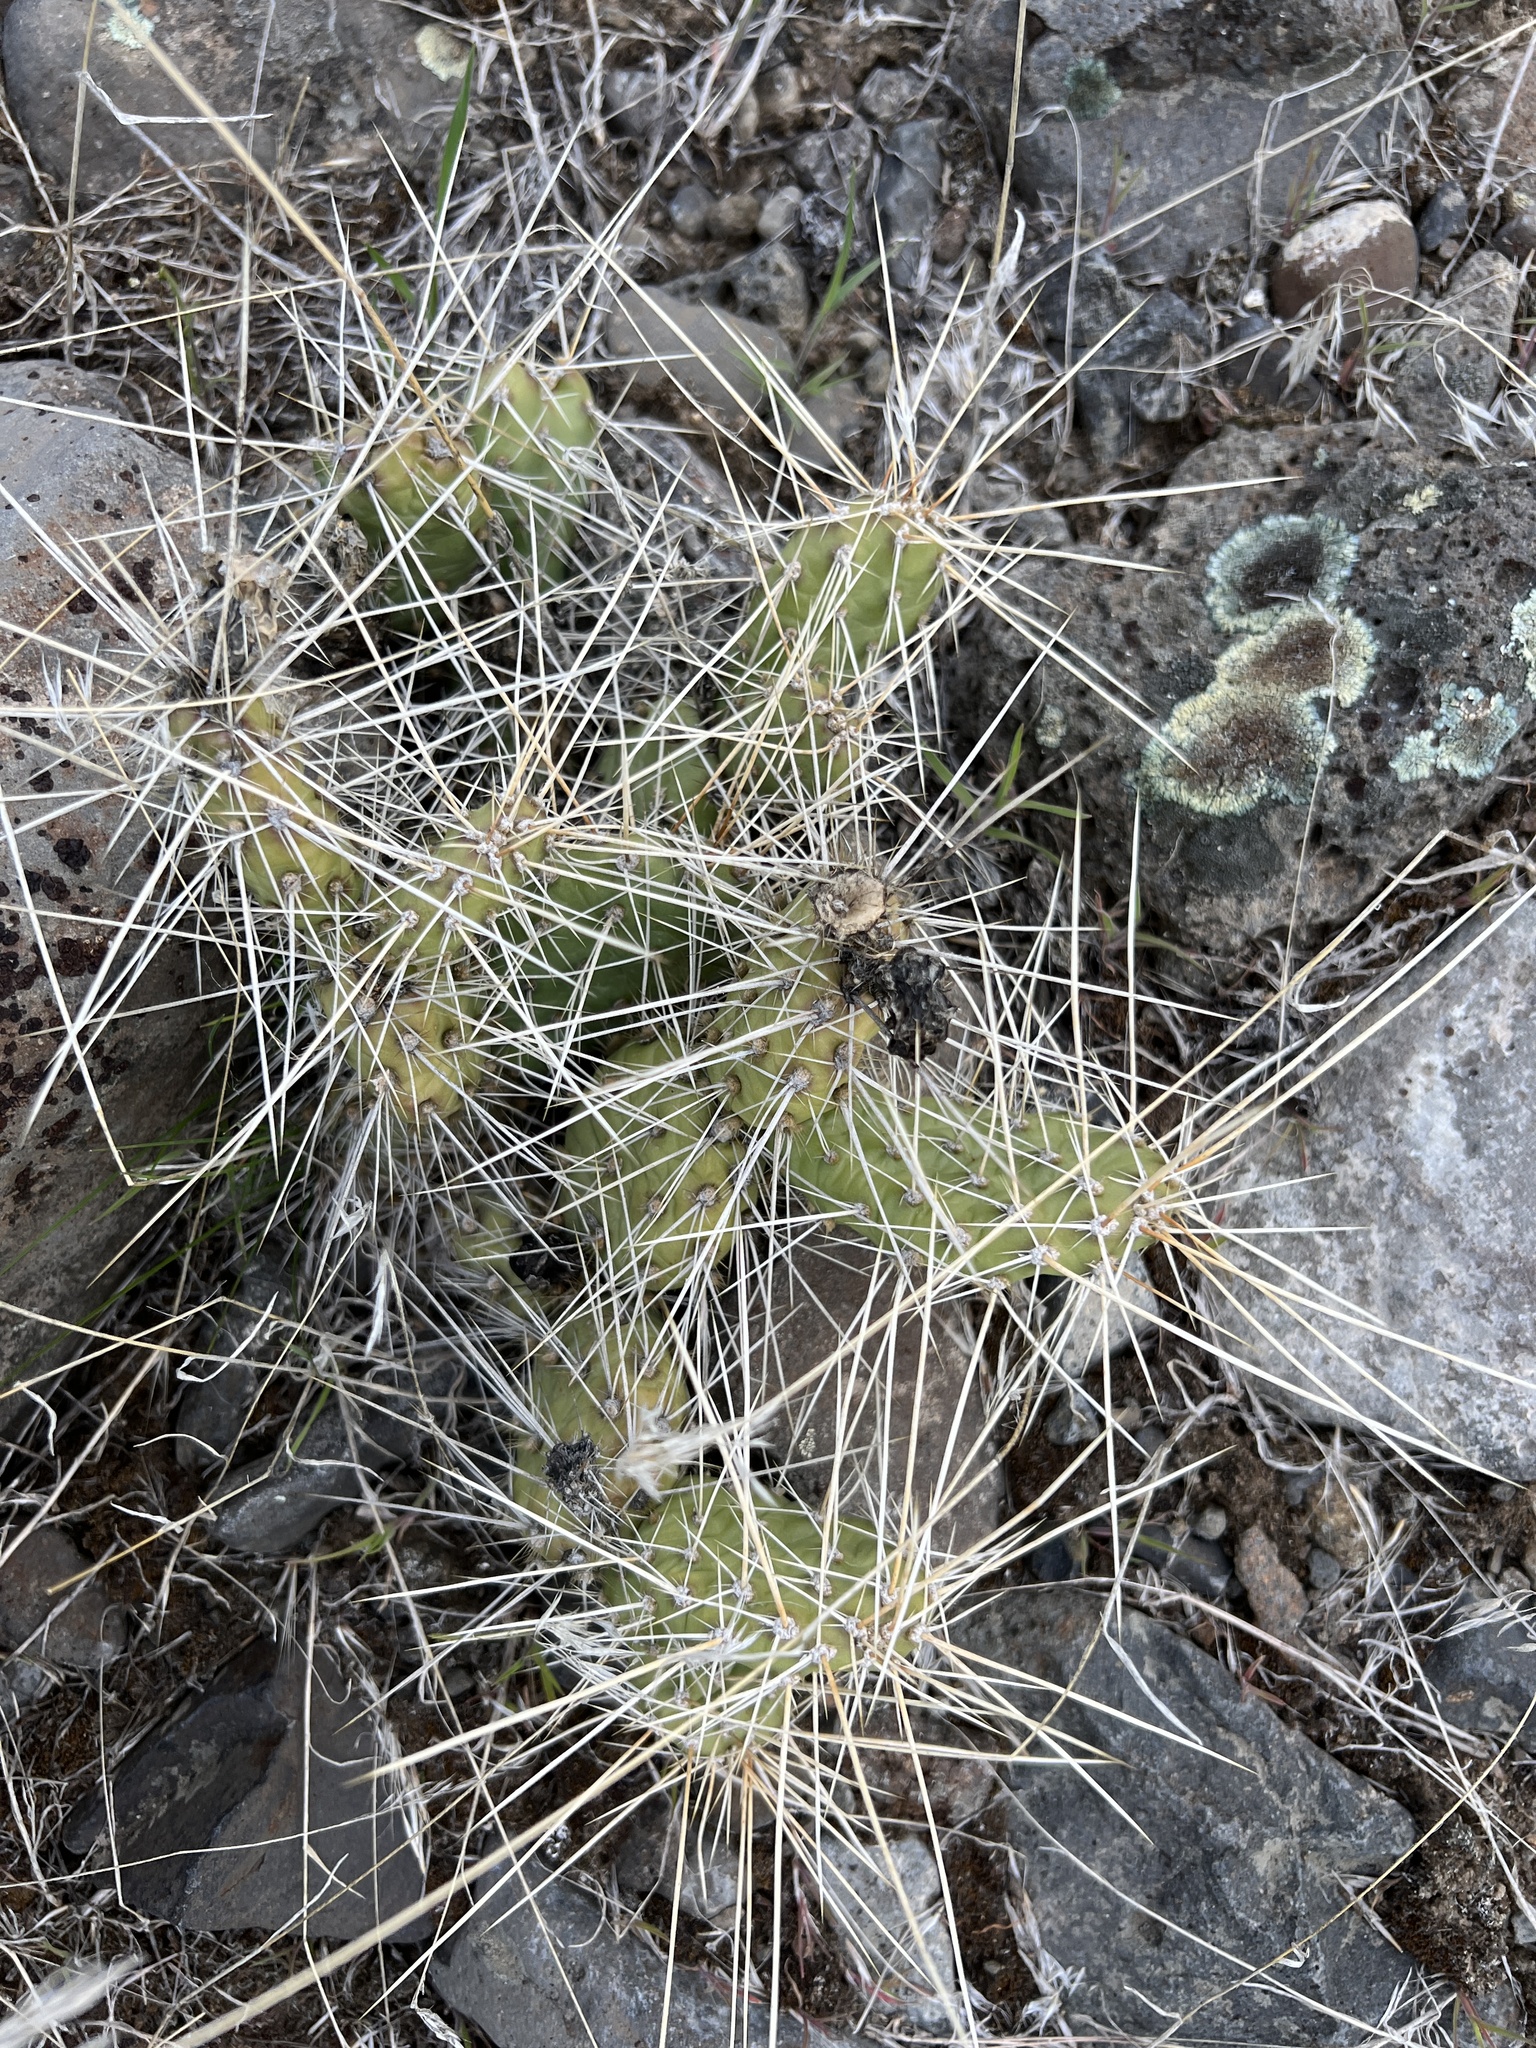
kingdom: Plantae
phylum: Tracheophyta
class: Magnoliopsida
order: Caryophyllales
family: Cactaceae
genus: Opuntia
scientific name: Opuntia columbiana
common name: Columbia prickly-pear
